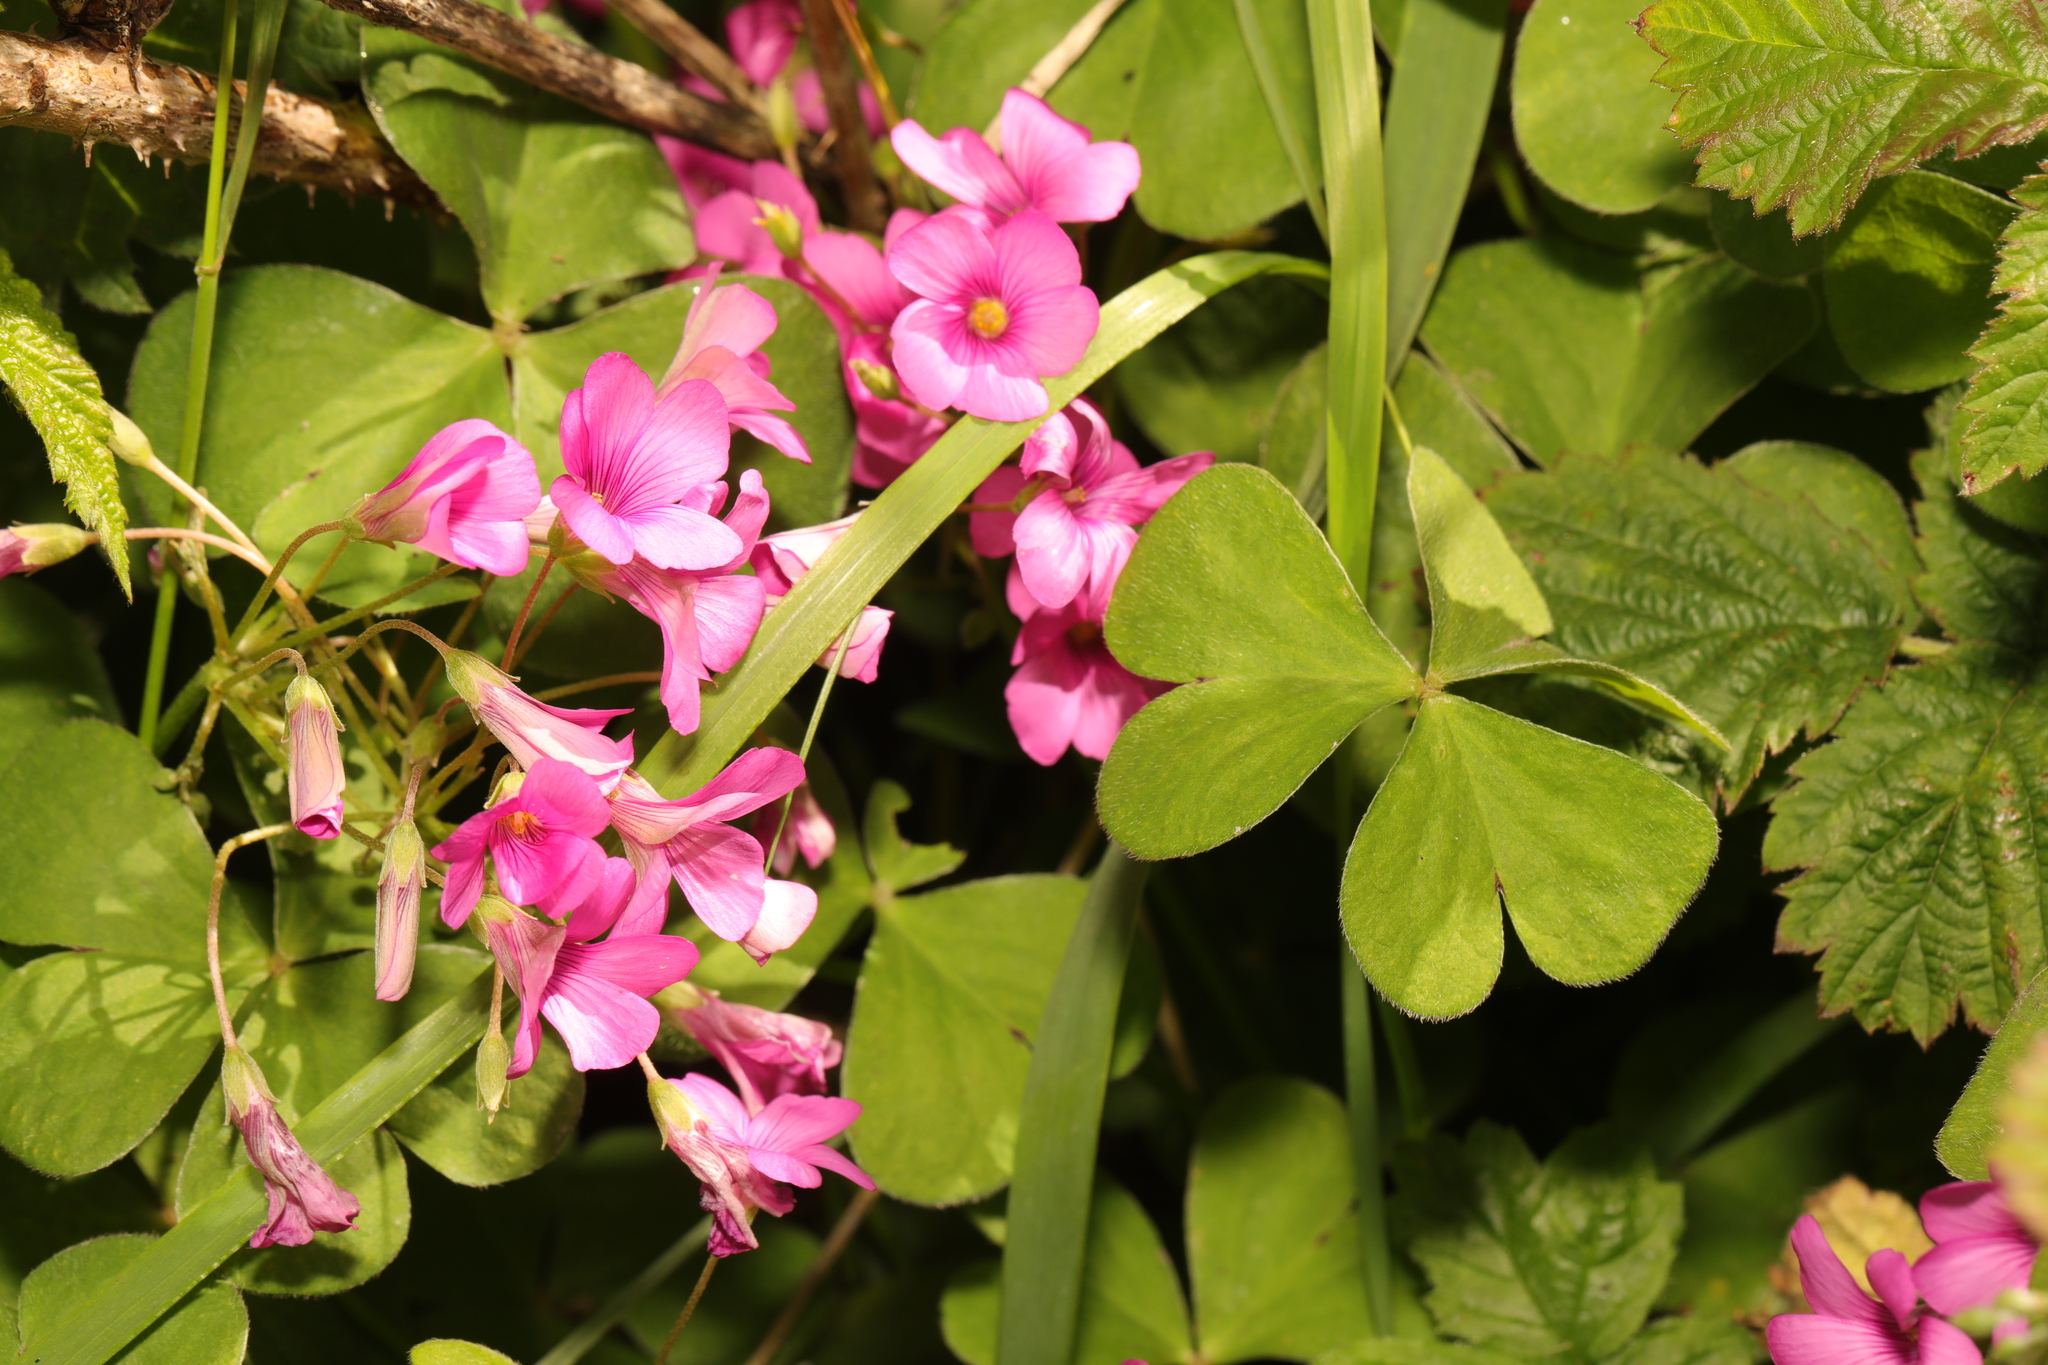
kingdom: Plantae
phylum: Tracheophyta
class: Magnoliopsida
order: Oxalidales
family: Oxalidaceae
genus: Oxalis
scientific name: Oxalis articulata
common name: Pink-sorrel
